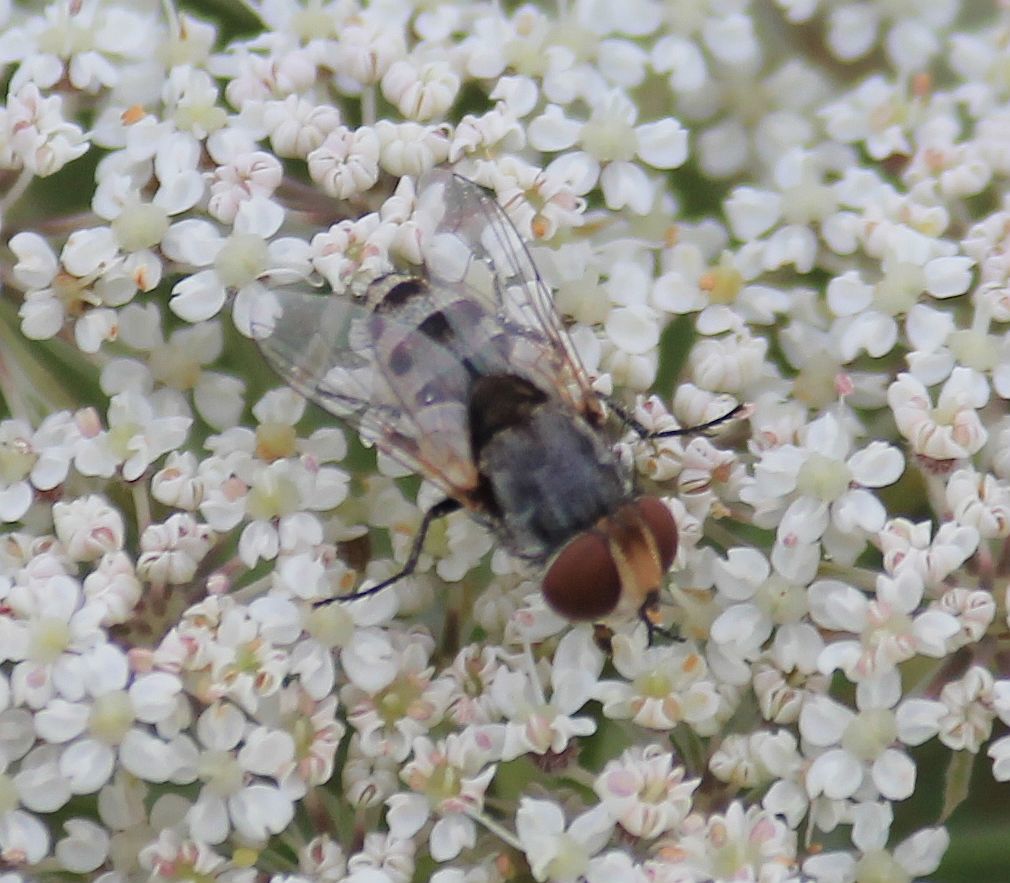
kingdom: Animalia
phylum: Arthropoda
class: Insecta
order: Diptera
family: Sarcophagidae
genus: Miltogramma
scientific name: Miltogramma punctata
